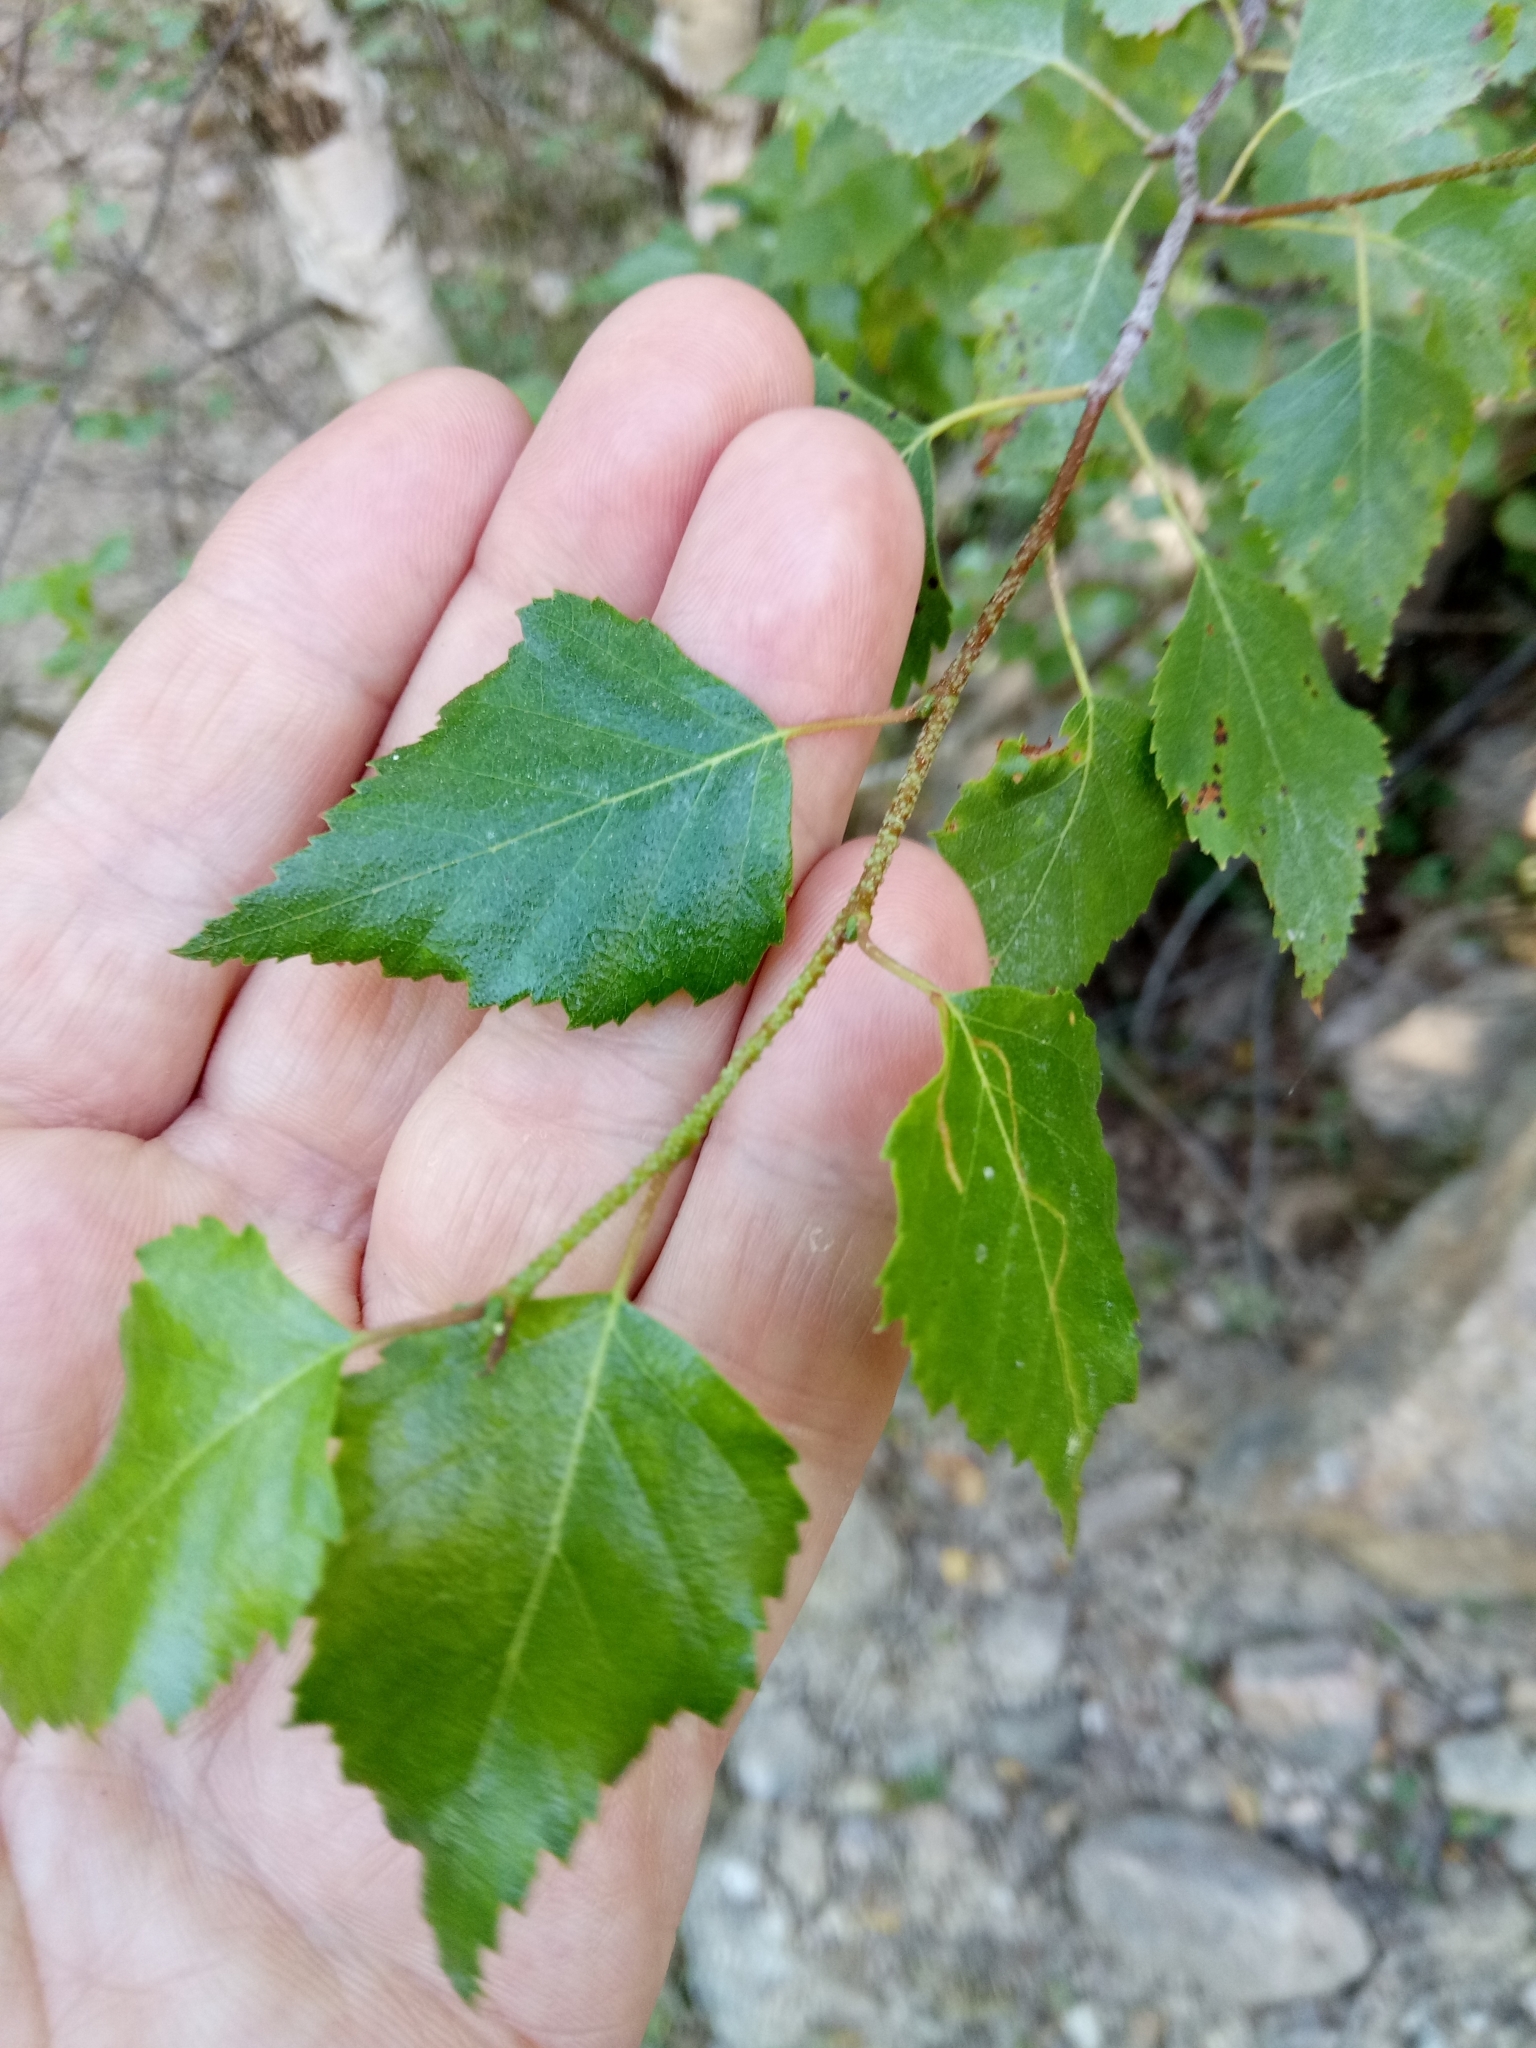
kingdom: Plantae
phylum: Tracheophyta
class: Magnoliopsida
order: Fagales
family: Betulaceae
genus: Betula
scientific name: Betula pendula
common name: Silver birch
